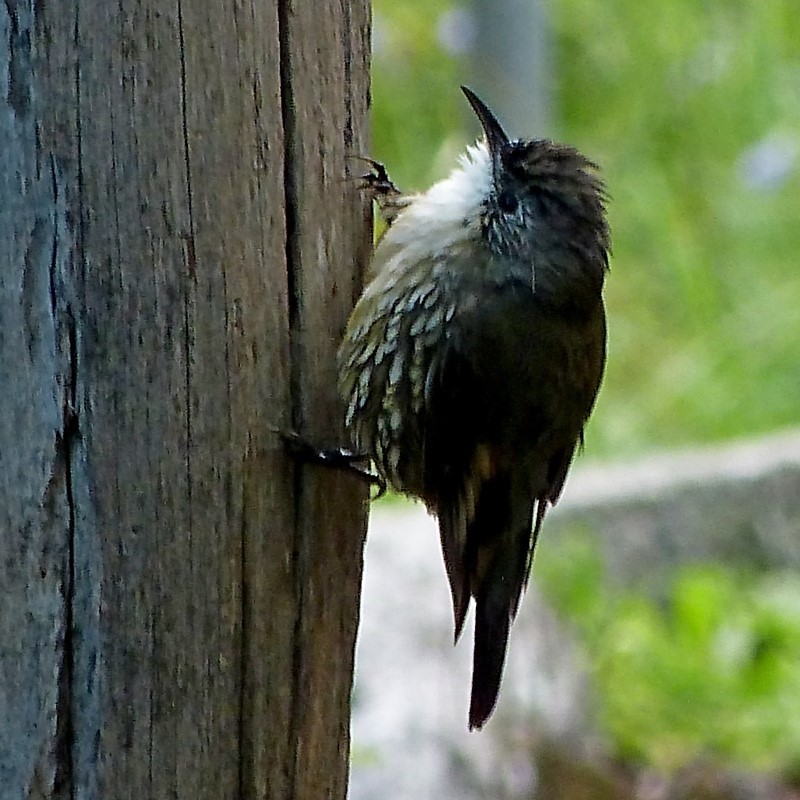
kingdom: Animalia
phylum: Chordata
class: Aves
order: Passeriformes
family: Climacteridae
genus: Cormobates
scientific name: Cormobates leucophaea
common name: White-throated treecreeper
